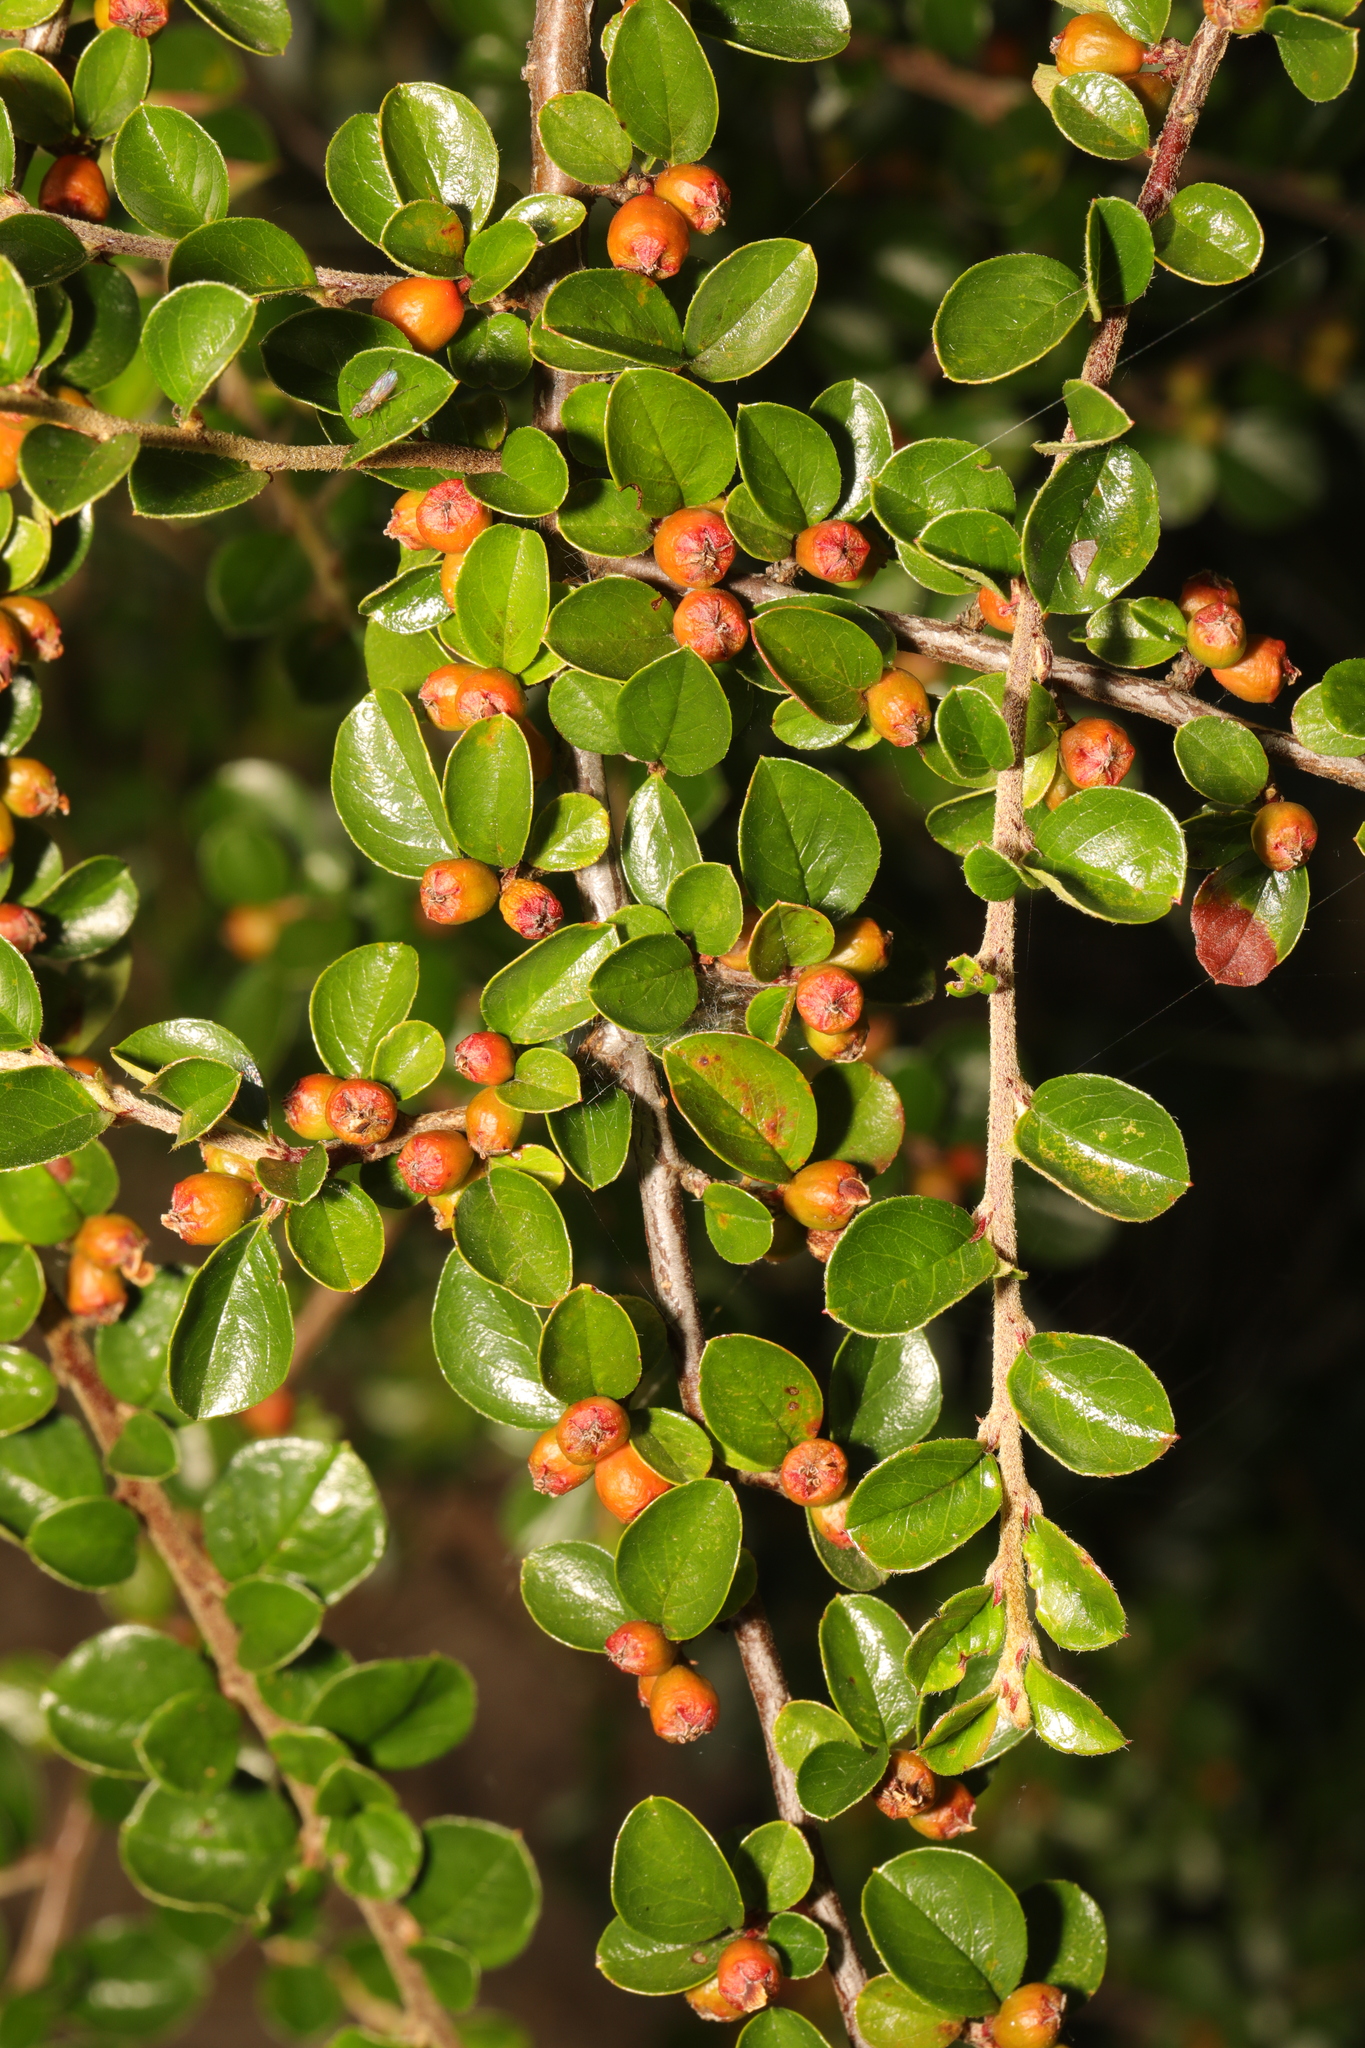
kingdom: Plantae
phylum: Tracheophyta
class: Magnoliopsida
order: Rosales
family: Rosaceae
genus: Cotoneaster
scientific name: Cotoneaster hjelmqvistii
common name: Hjelmqvist's cotoneaster
